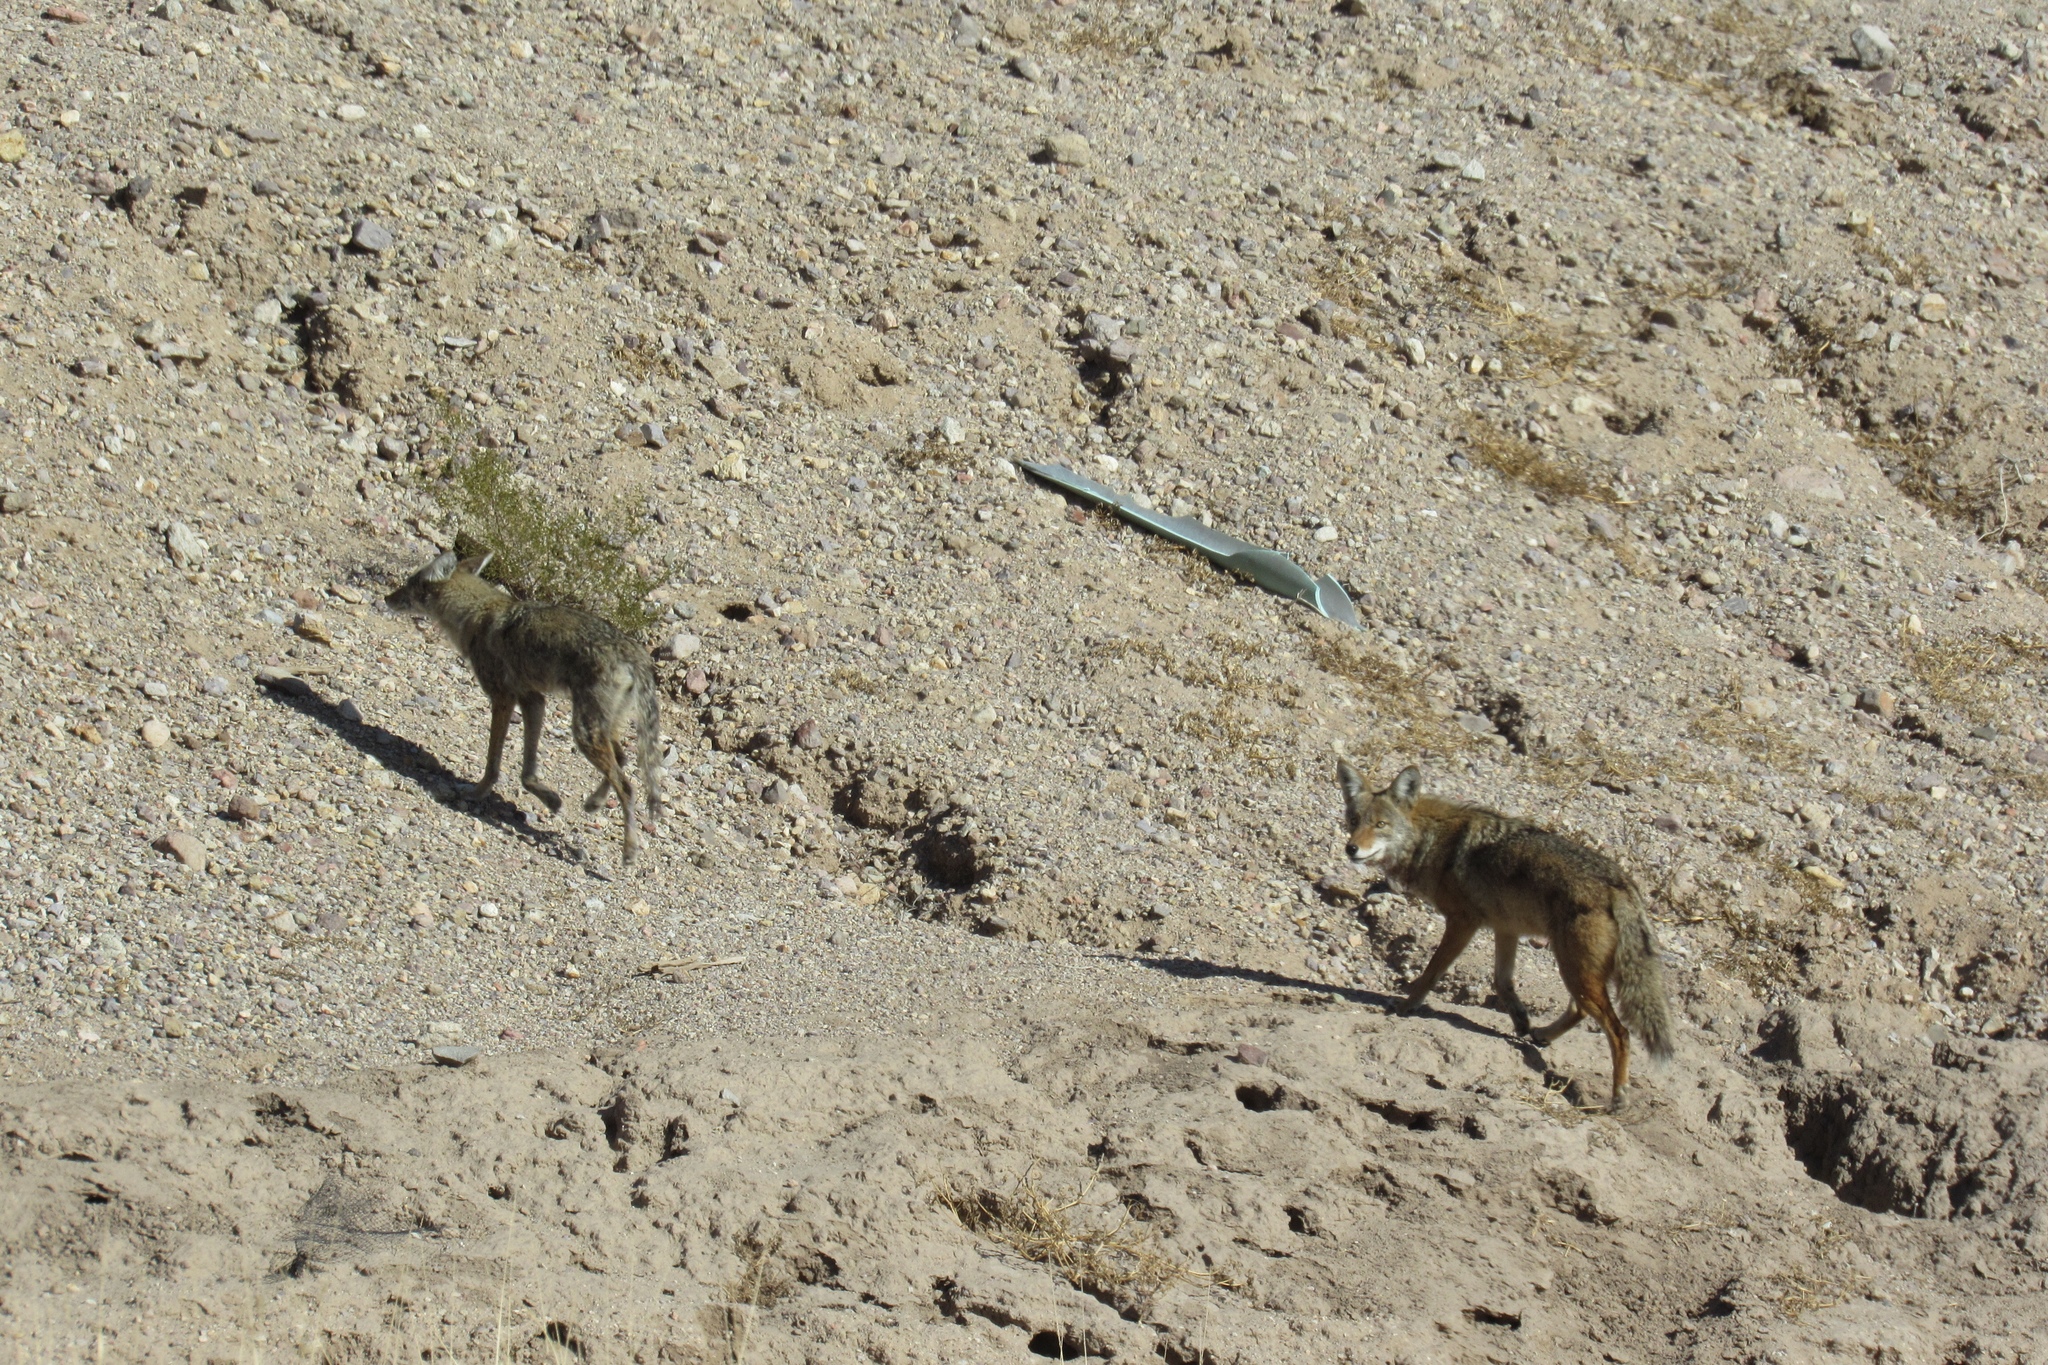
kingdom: Animalia
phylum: Chordata
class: Mammalia
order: Carnivora
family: Canidae
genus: Canis
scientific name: Canis latrans
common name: Coyote
